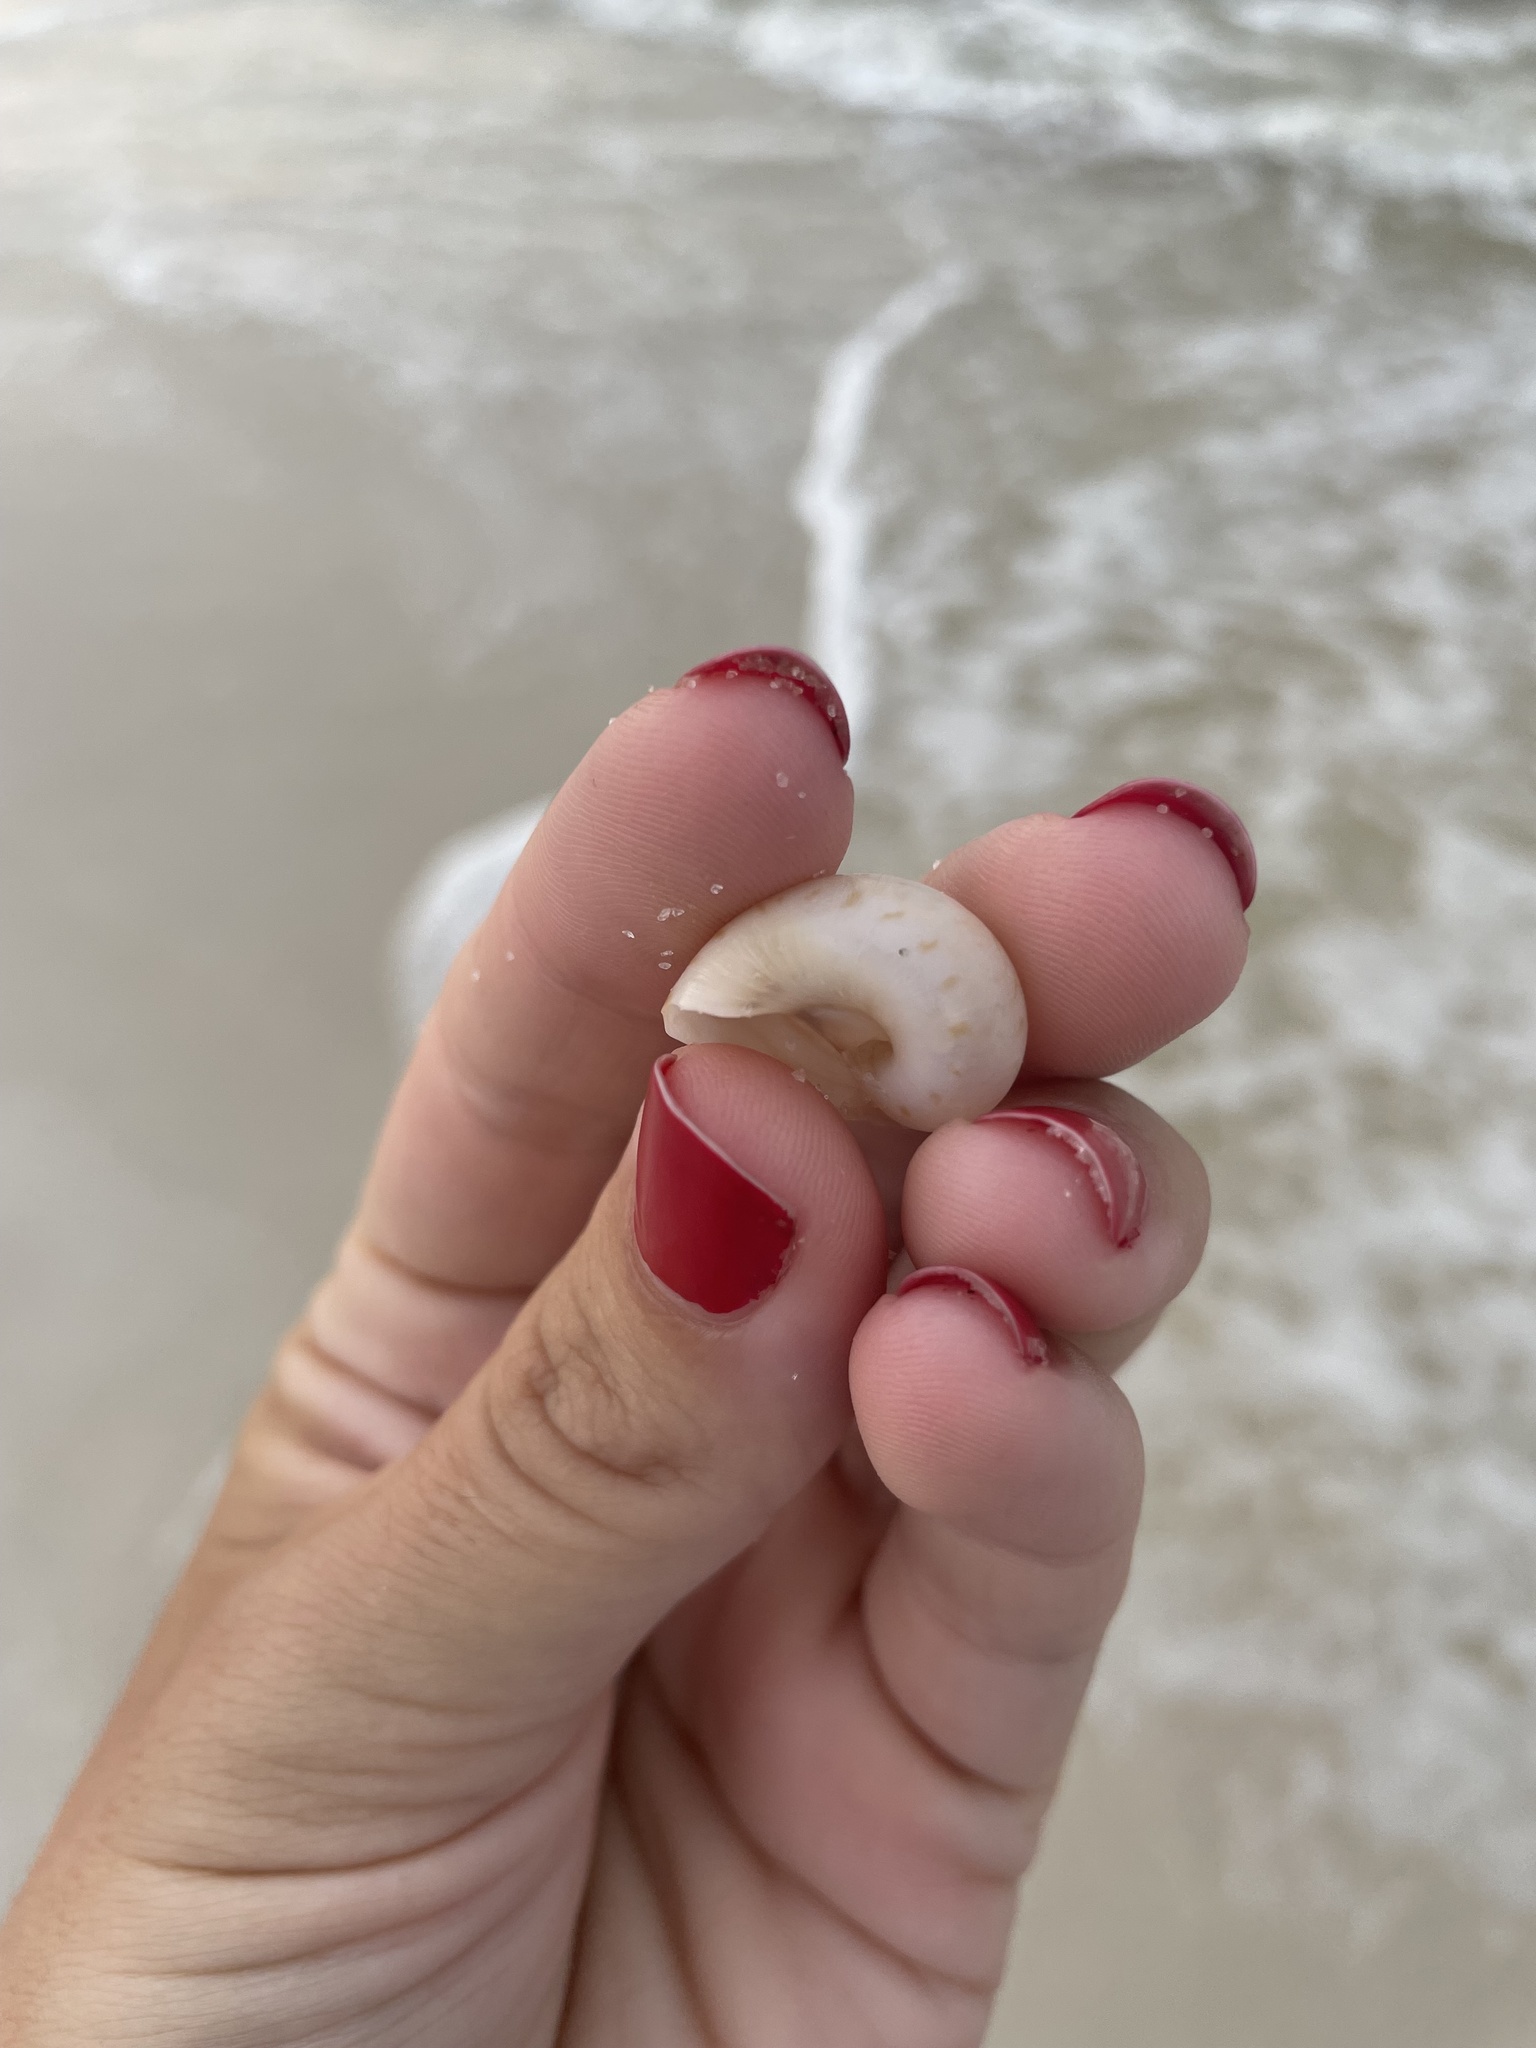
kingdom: Animalia
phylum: Mollusca
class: Gastropoda
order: Littorinimorpha
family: Naticidae
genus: Naticarius
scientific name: Naticarius canrena
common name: Colorful moonsnail
